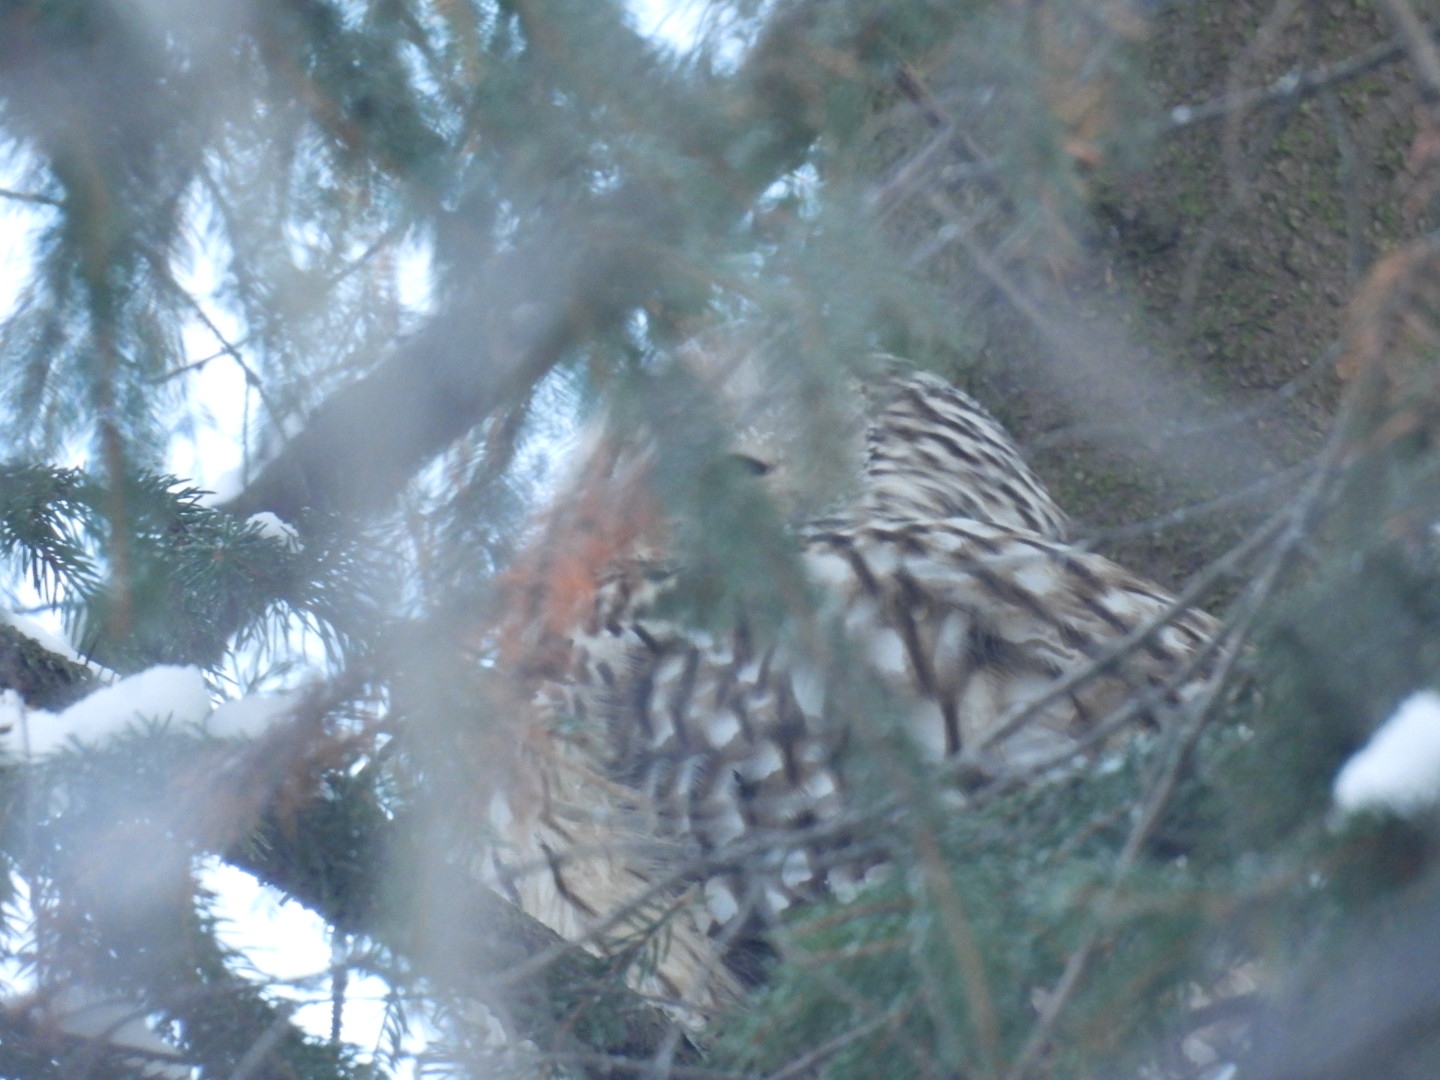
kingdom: Animalia
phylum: Chordata
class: Aves
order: Strigiformes
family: Strigidae
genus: Strix
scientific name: Strix uralensis
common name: Ural owl
